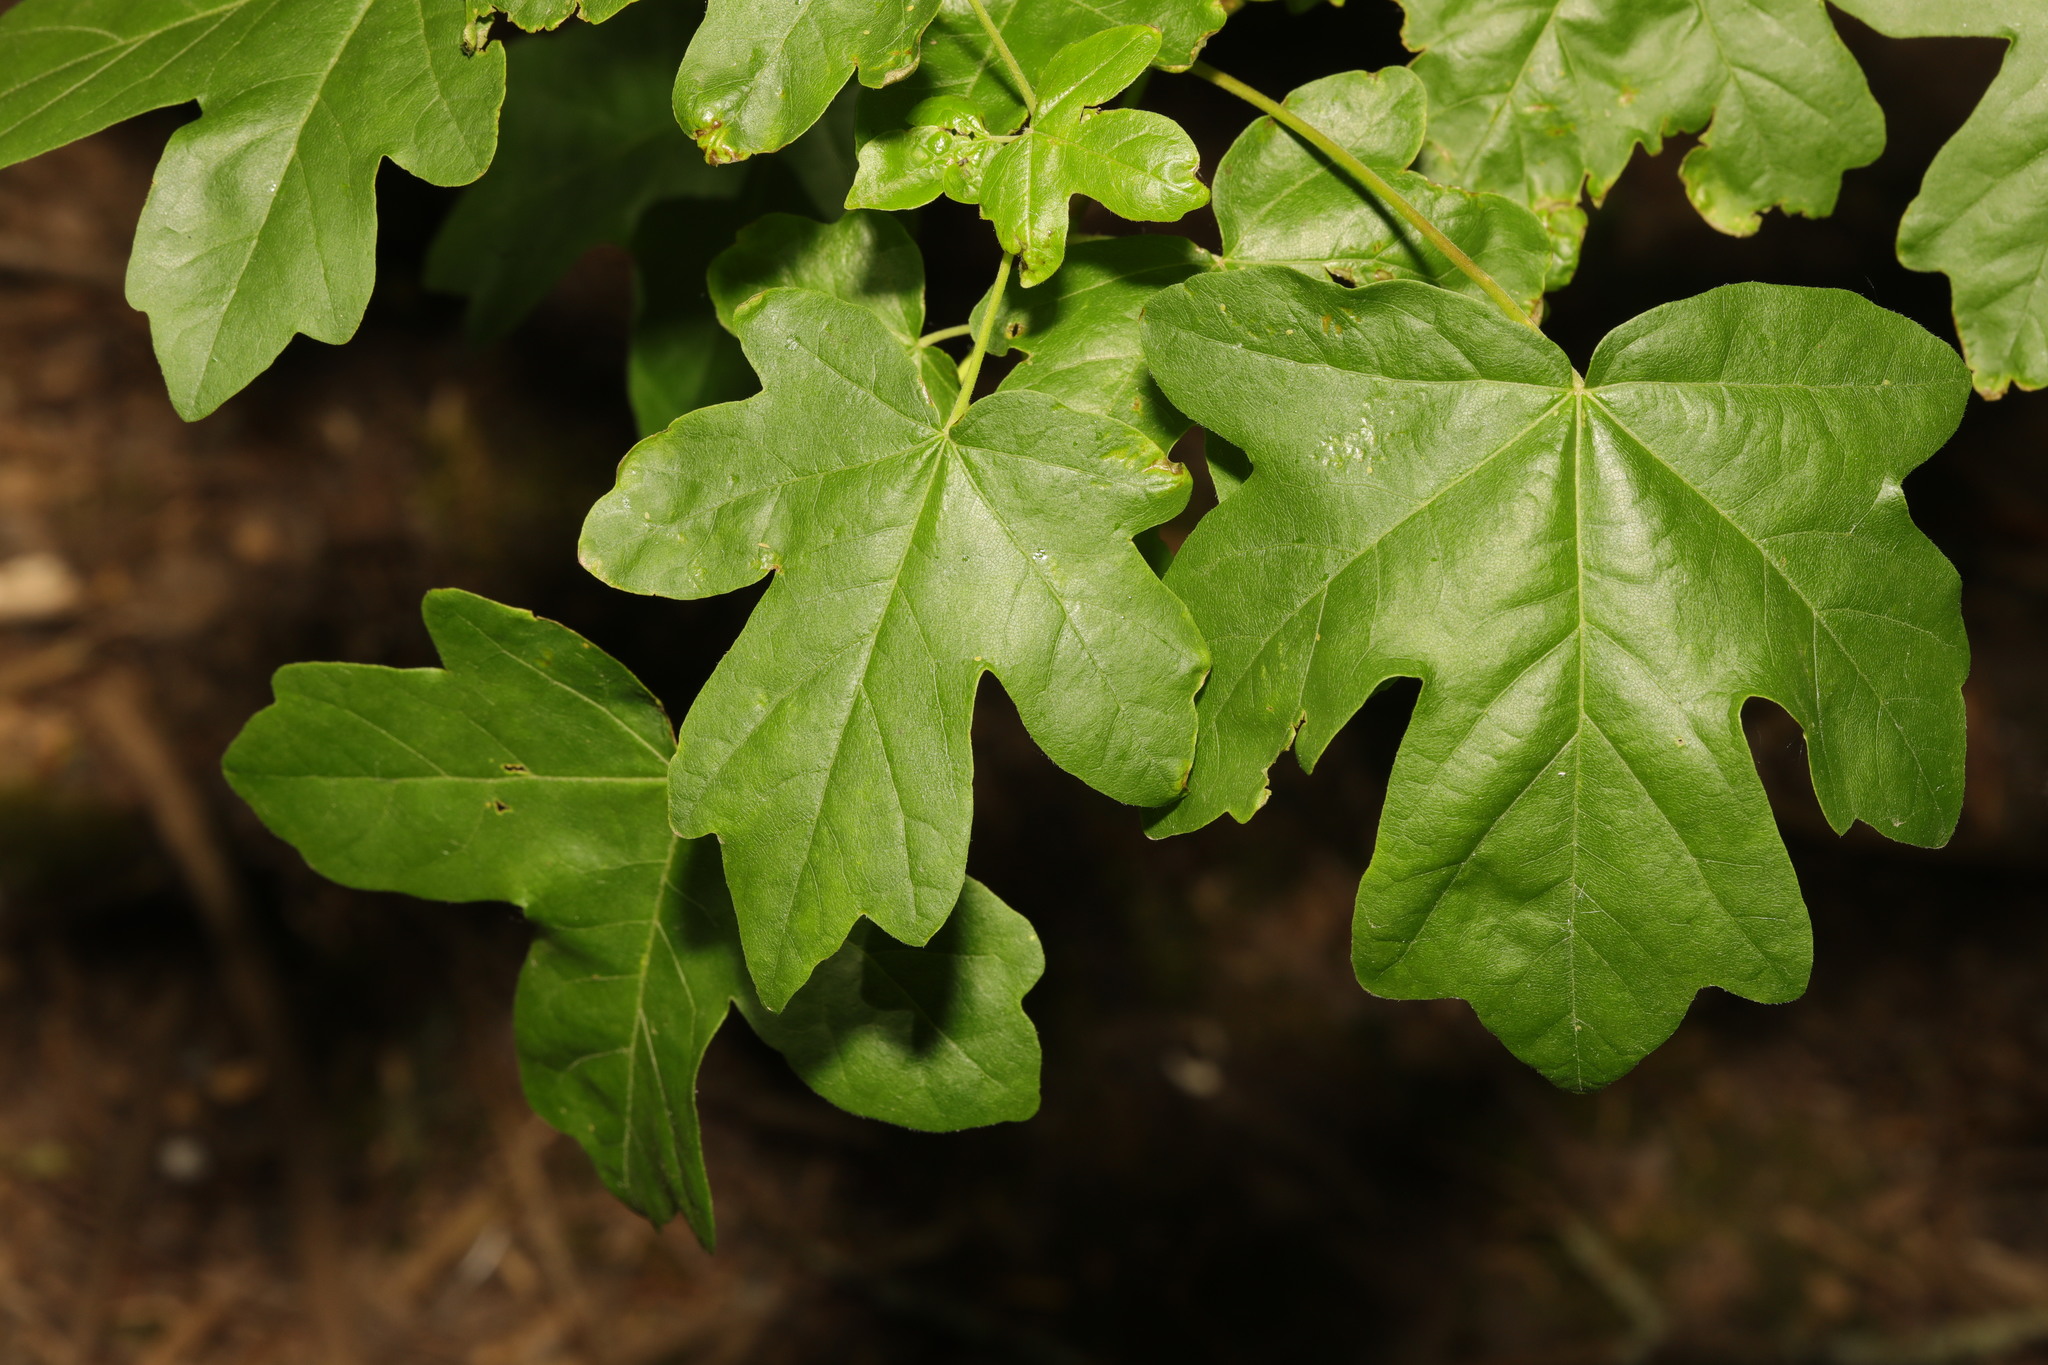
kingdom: Plantae
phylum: Tracheophyta
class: Magnoliopsida
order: Sapindales
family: Sapindaceae
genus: Acer
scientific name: Acer campestre
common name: Field maple
